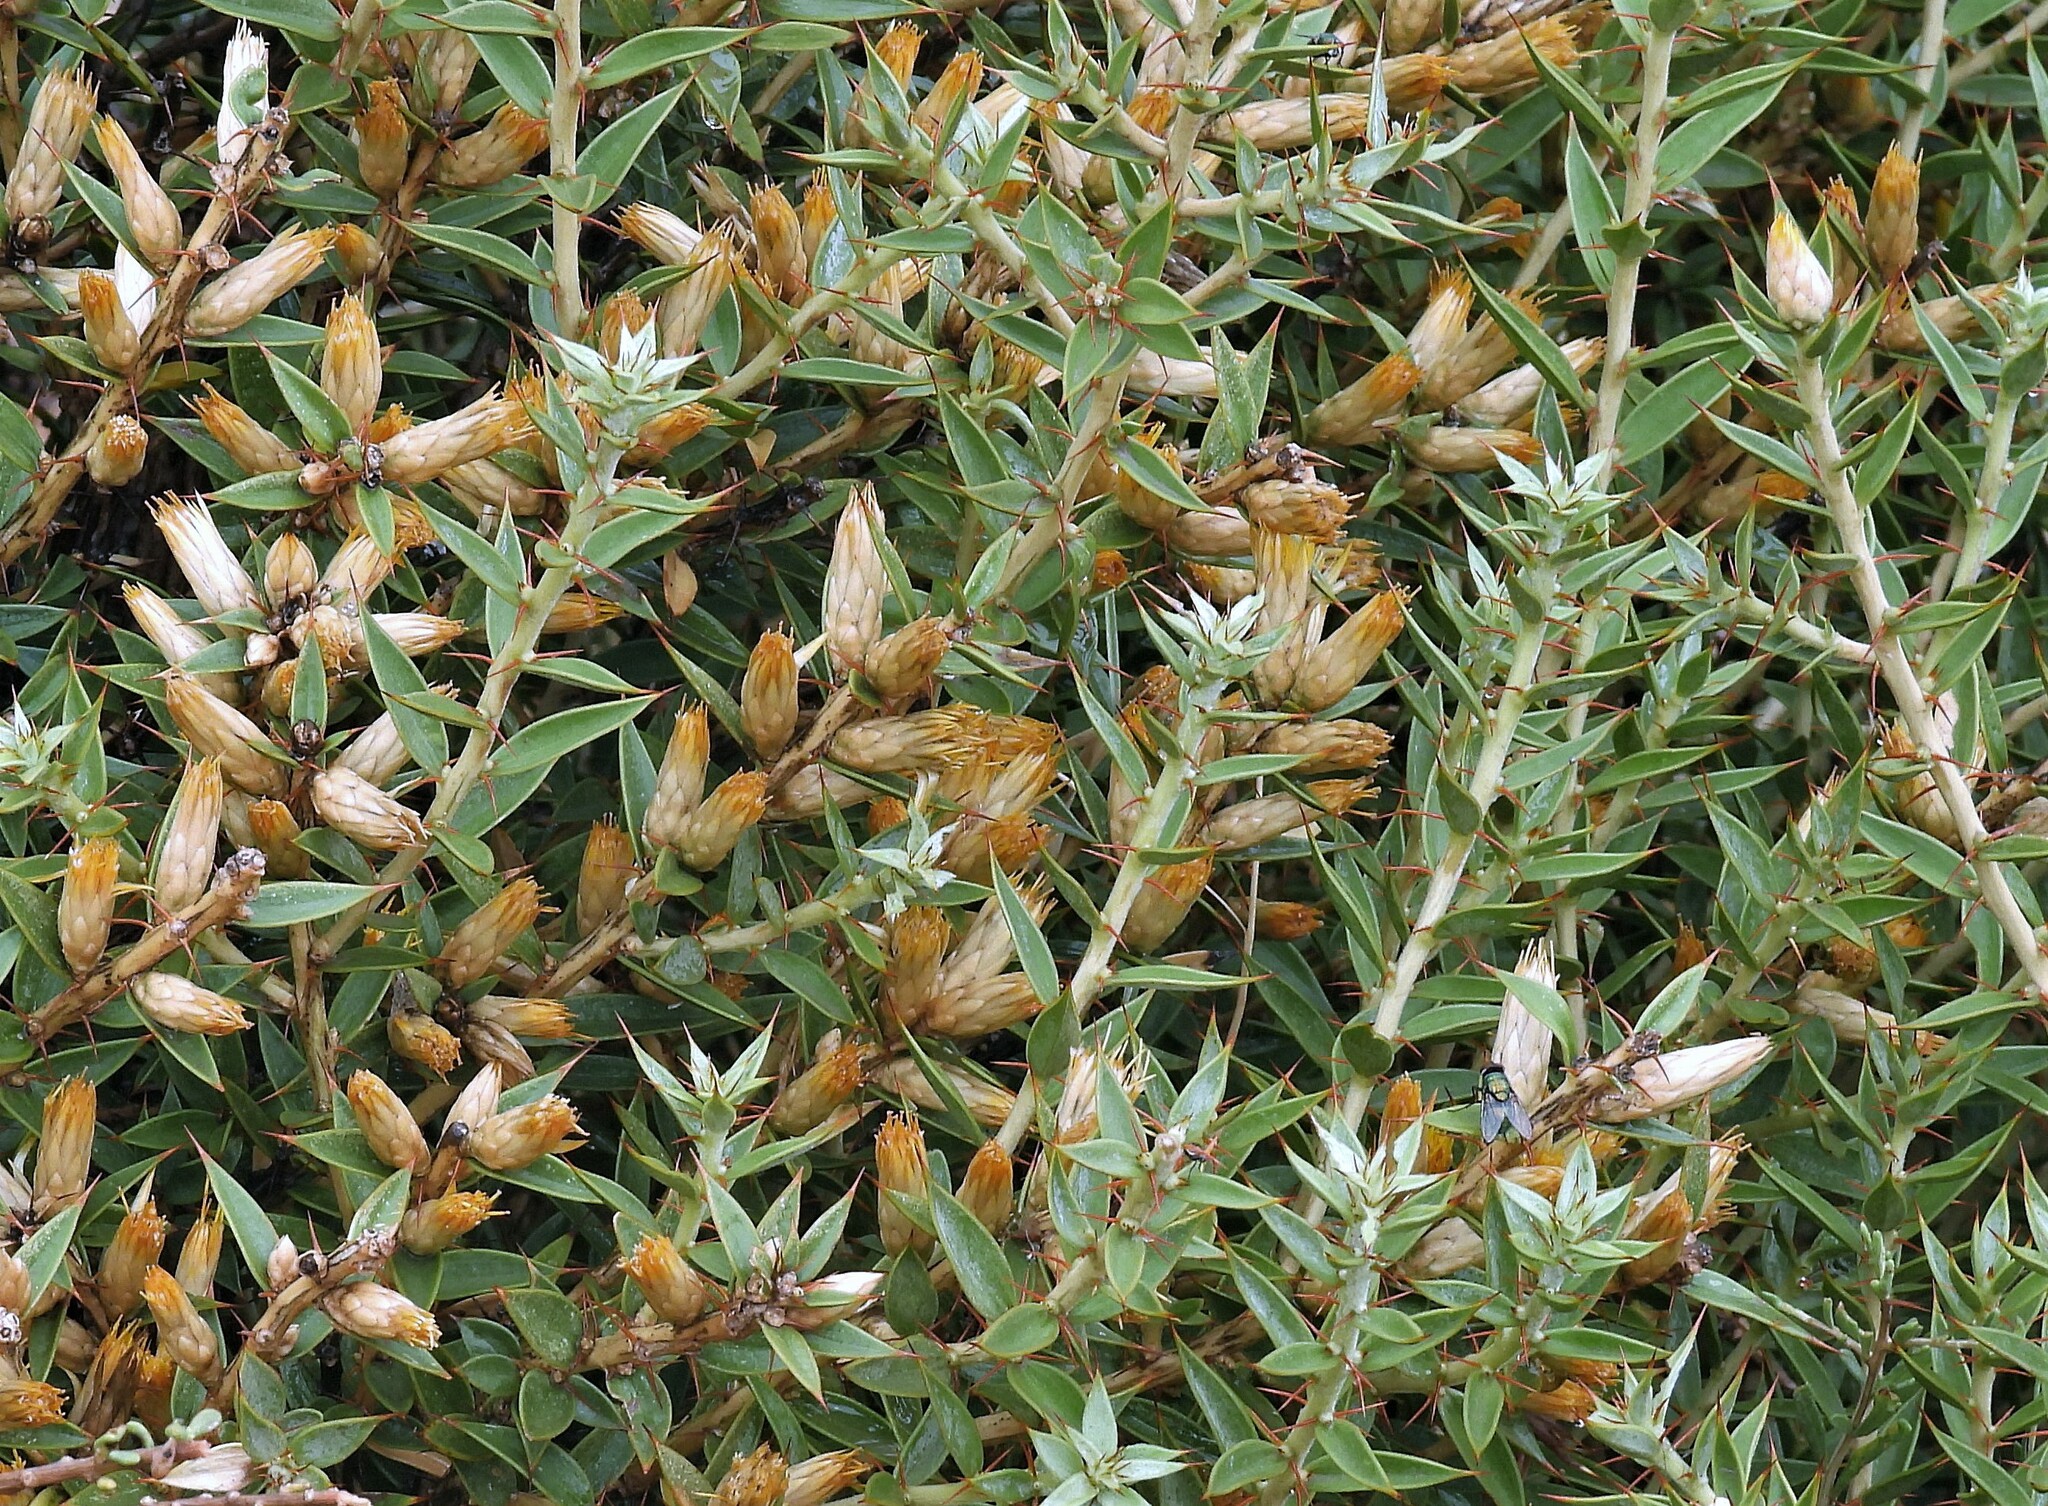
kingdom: Plantae
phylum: Tracheophyta
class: Magnoliopsida
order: Asterales
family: Asteraceae
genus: Chuquiraga
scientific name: Chuquiraga avellanedae
